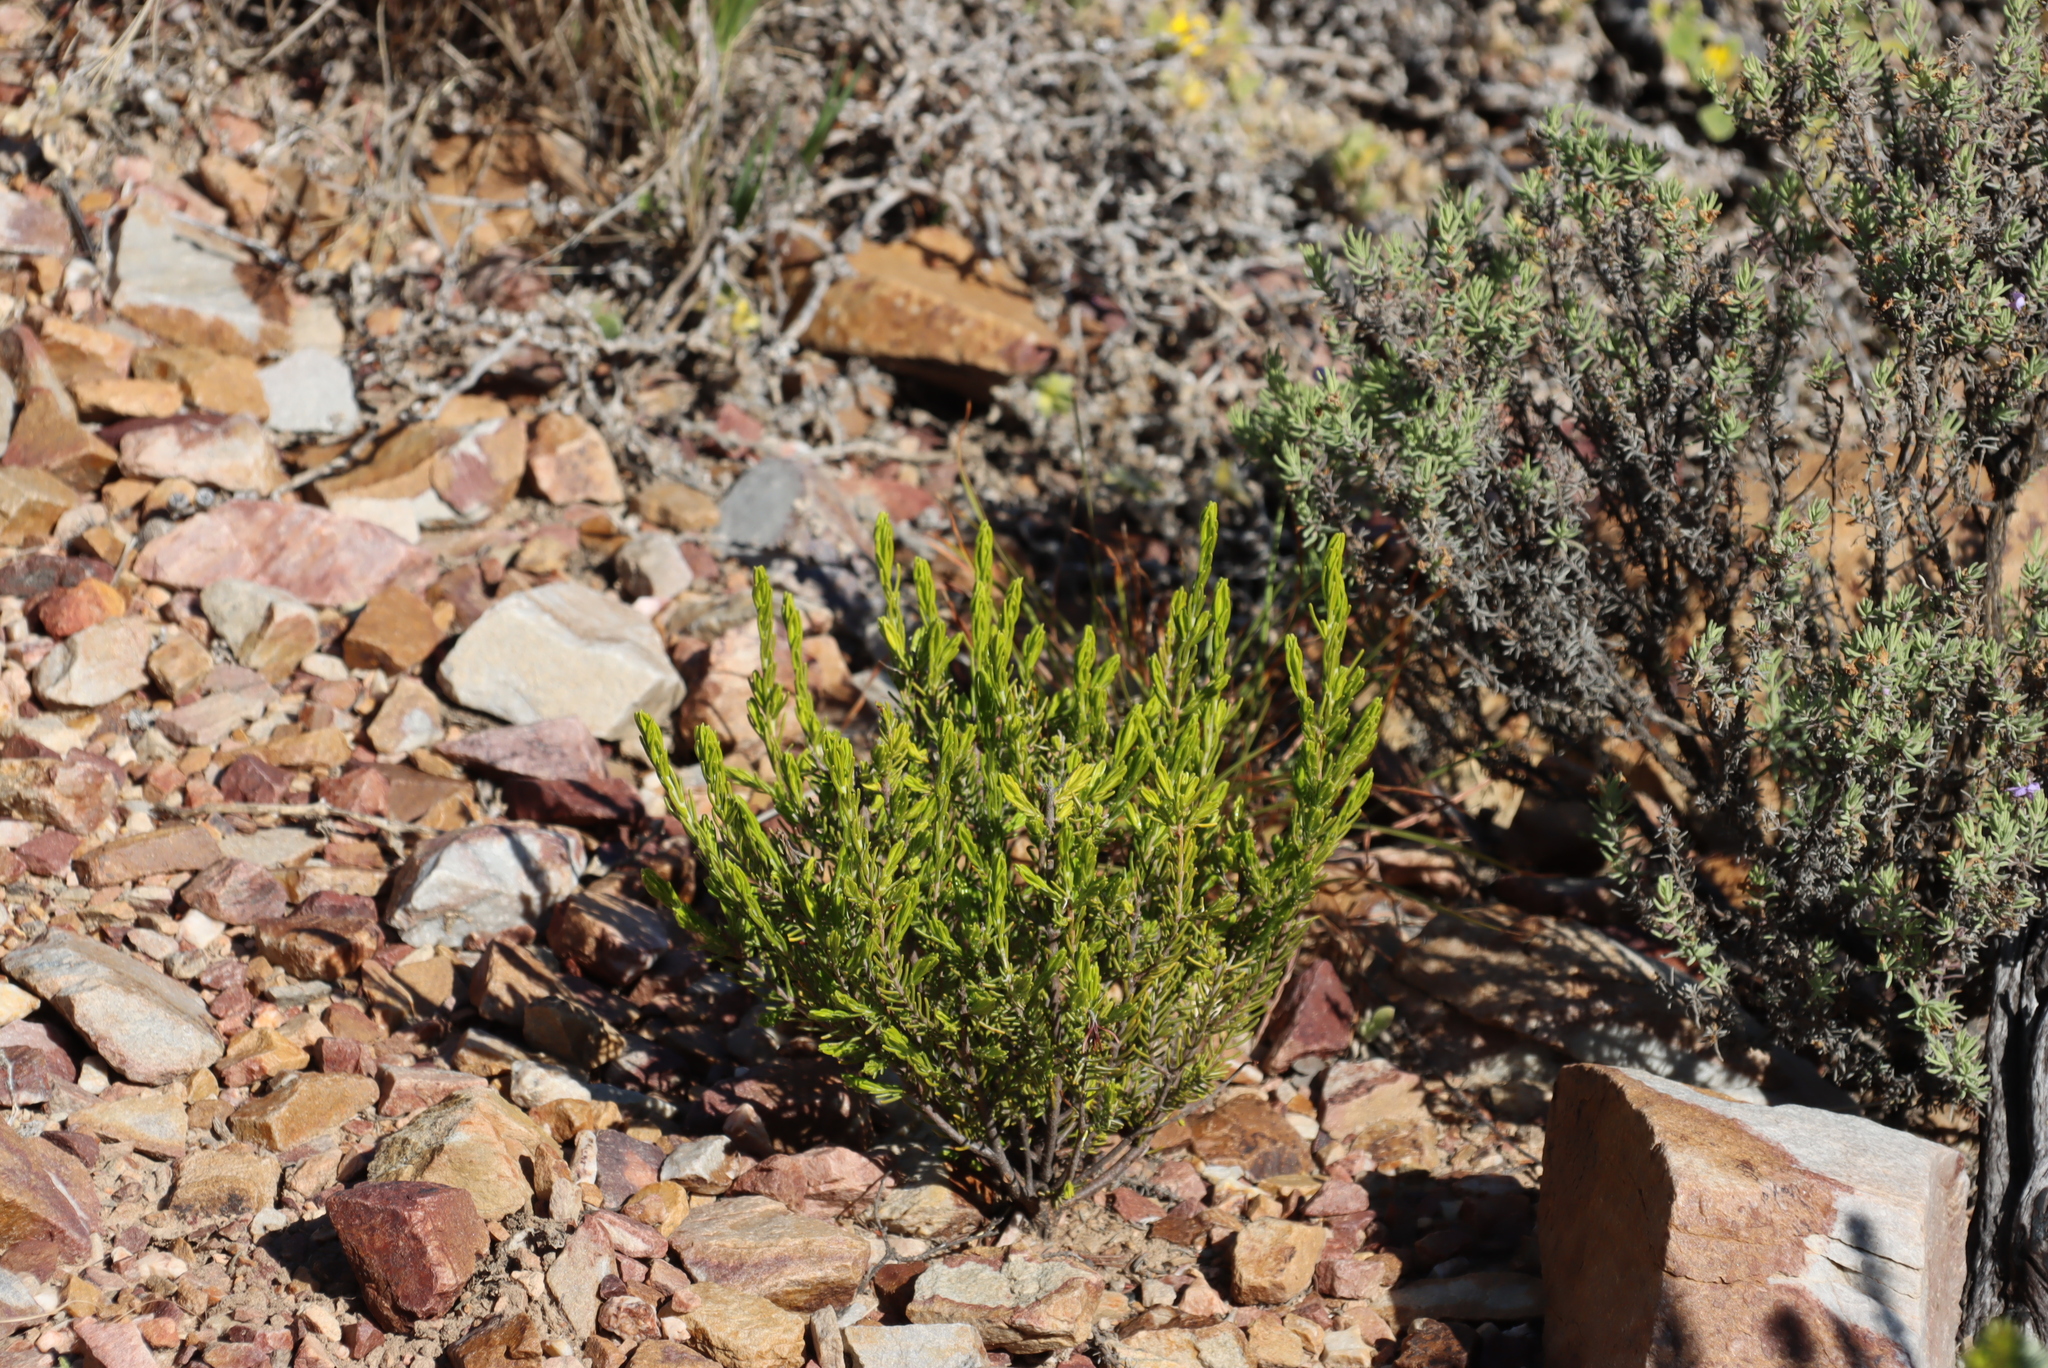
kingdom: Plantae
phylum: Tracheophyta
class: Magnoliopsida
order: Malvales
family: Thymelaeaceae
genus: Passerina
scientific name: Passerina obtusifolia
